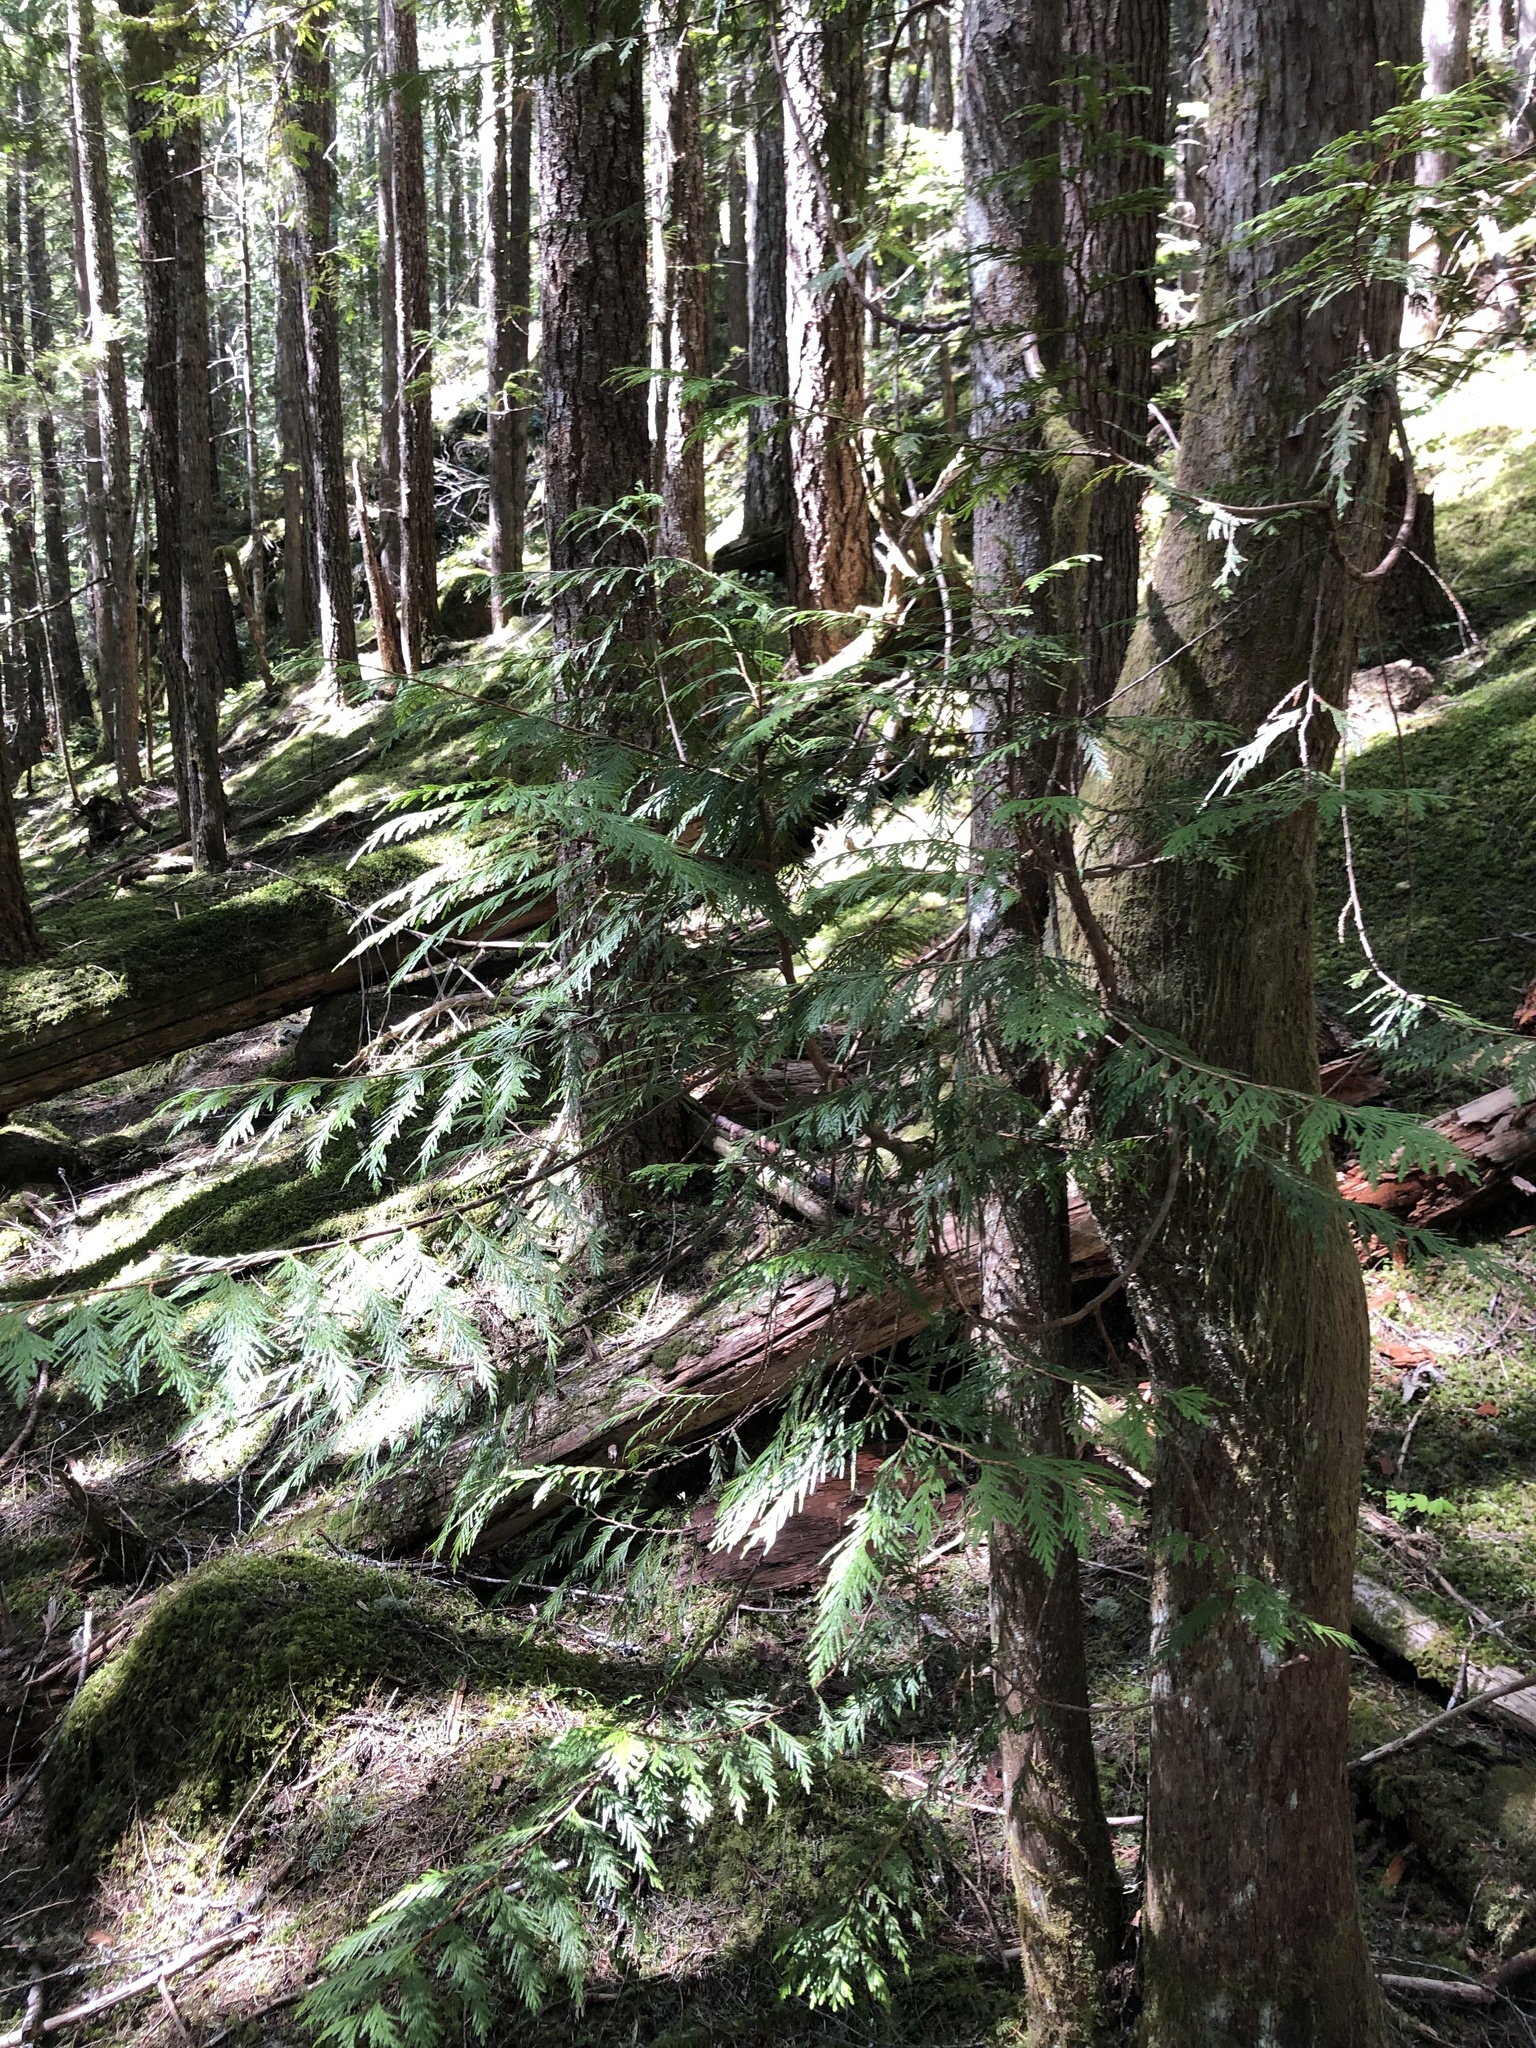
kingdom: Plantae
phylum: Tracheophyta
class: Pinopsida
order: Pinales
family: Cupressaceae
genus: Thuja
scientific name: Thuja plicata
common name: Western red-cedar
